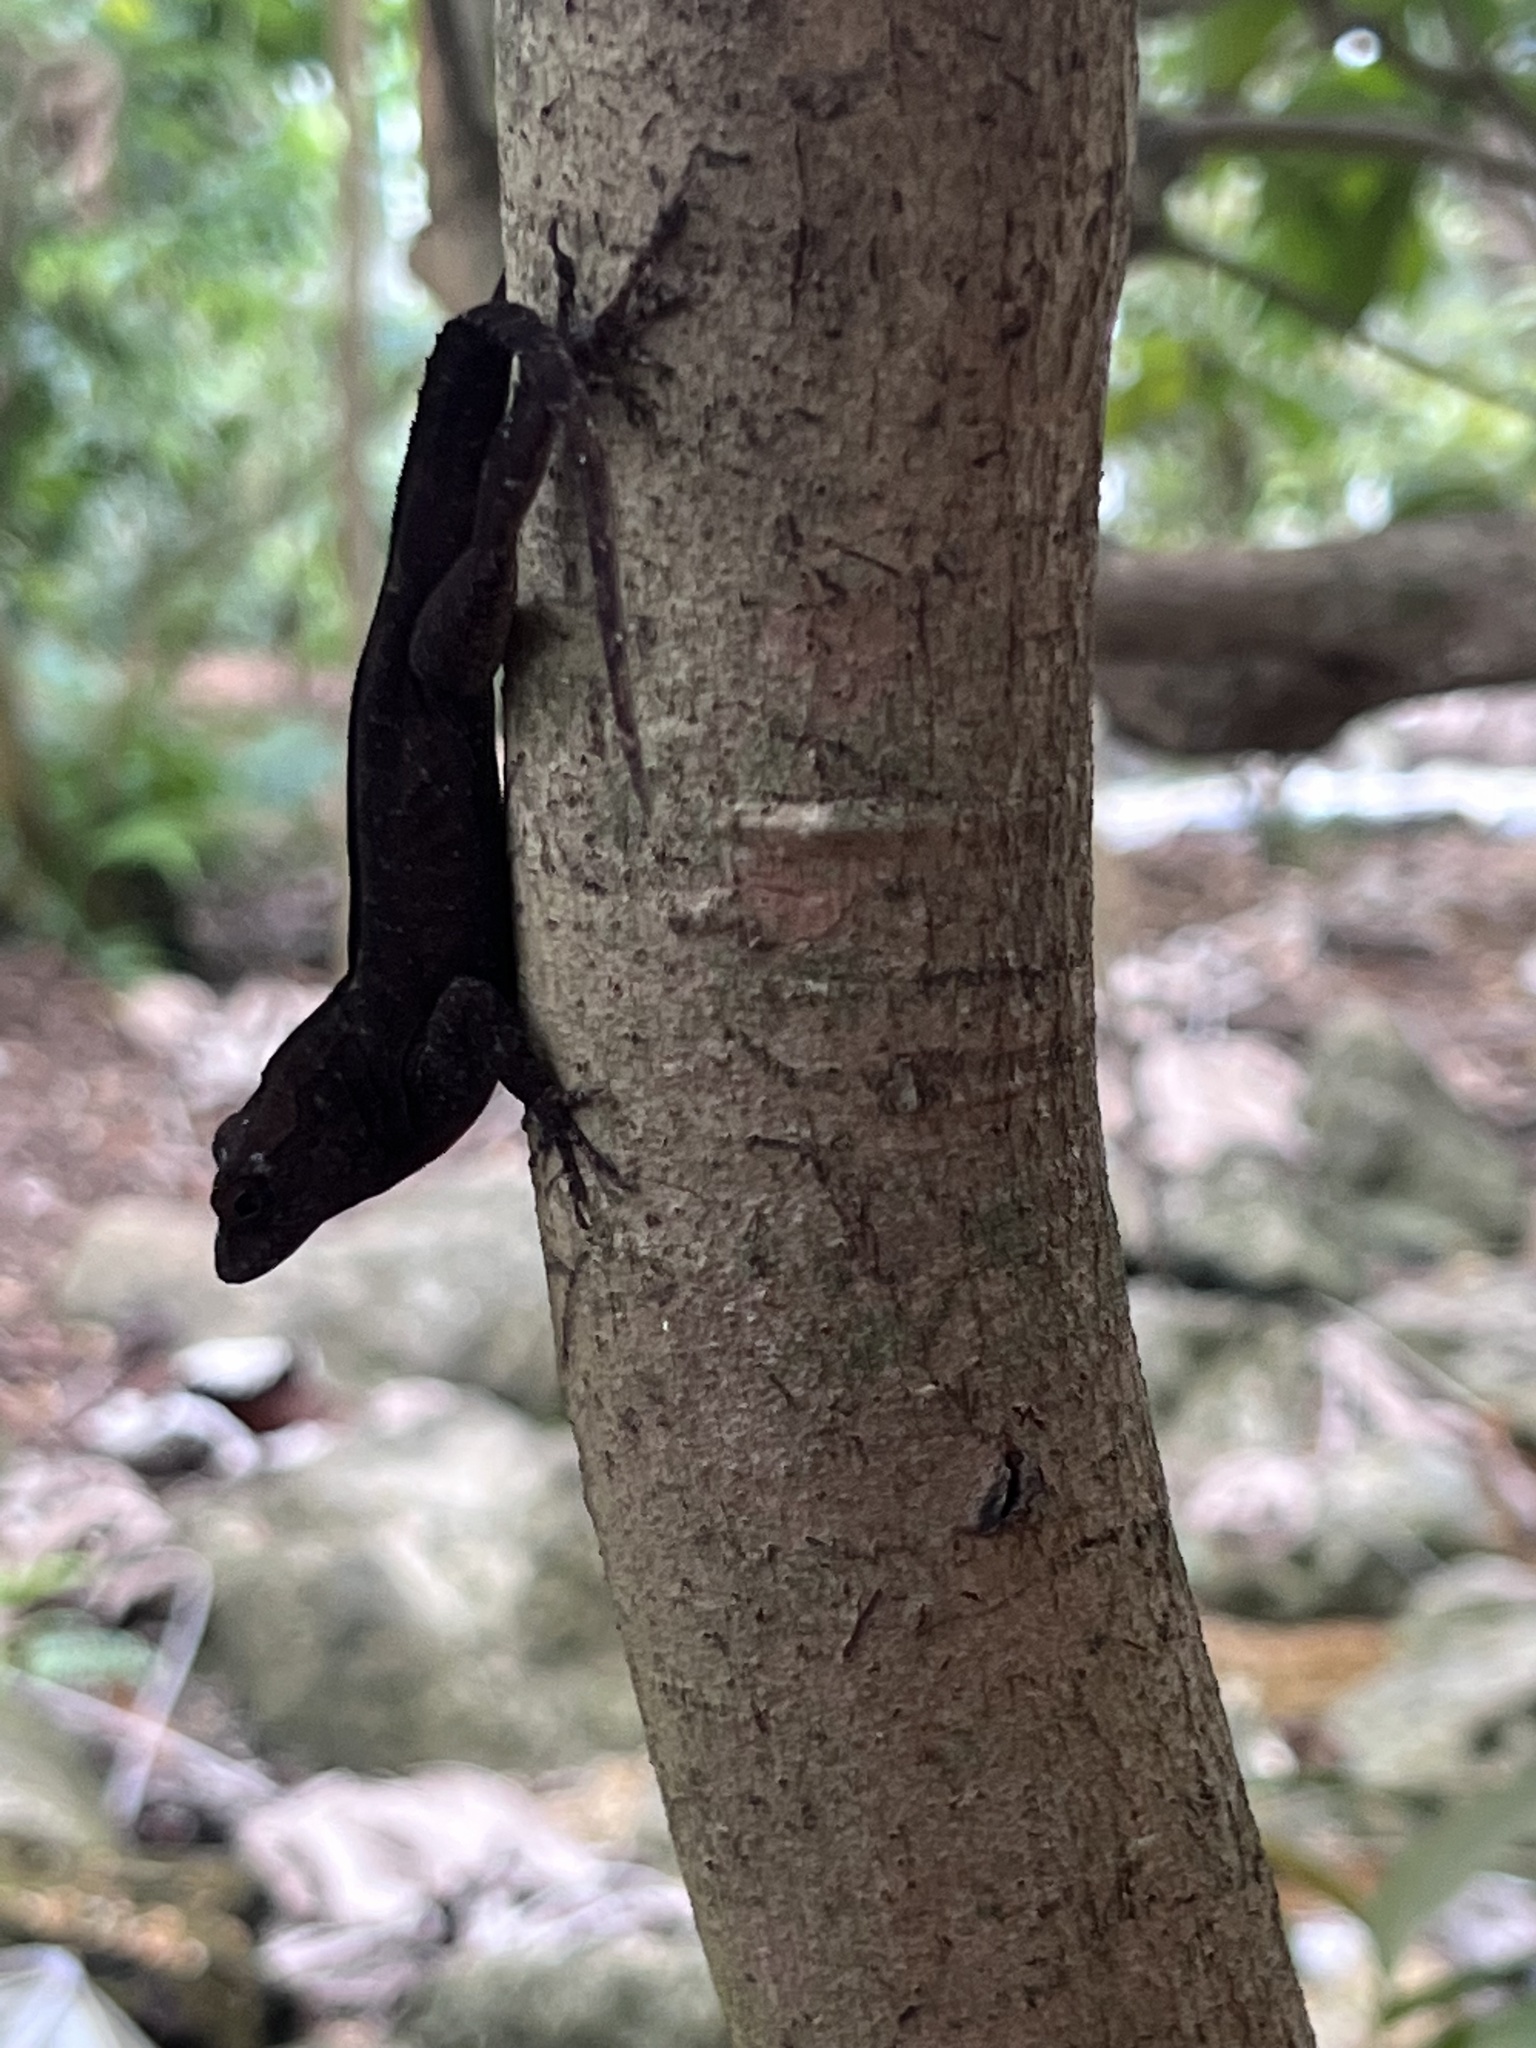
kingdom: Animalia
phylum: Chordata
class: Squamata
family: Dactyloidae
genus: Anolis
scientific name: Anolis cristatellus
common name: Crested anole
